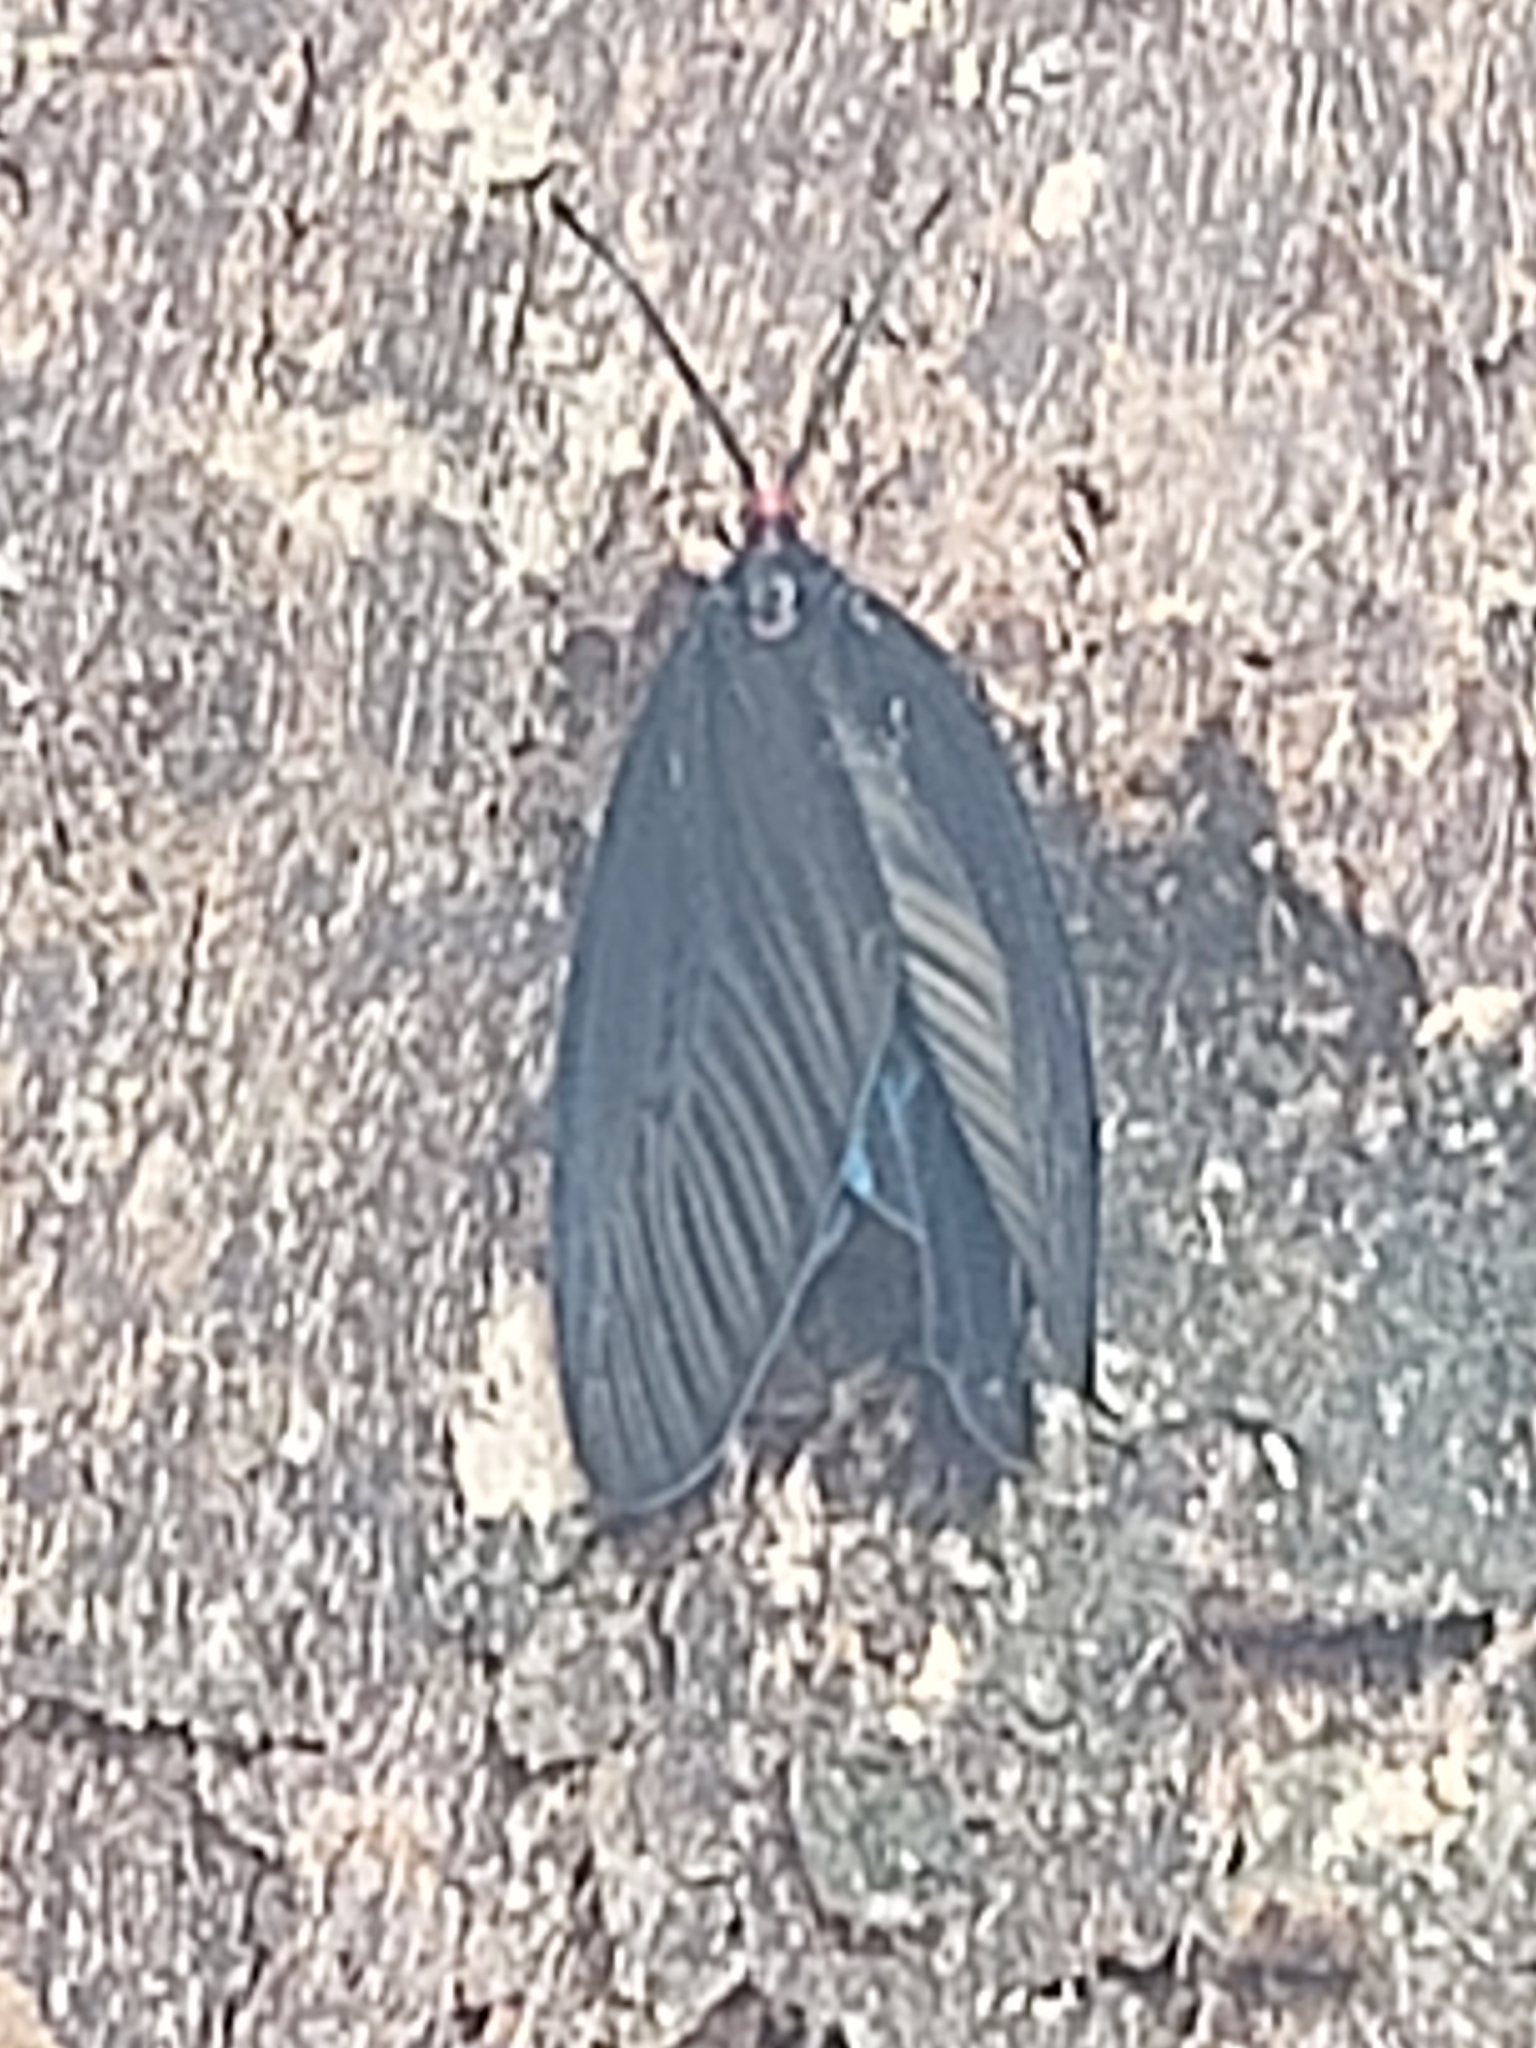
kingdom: Animalia
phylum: Arthropoda
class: Insecta
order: Lepidoptera
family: Zygaenidae
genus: Histia
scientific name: Histia flabellicornis
